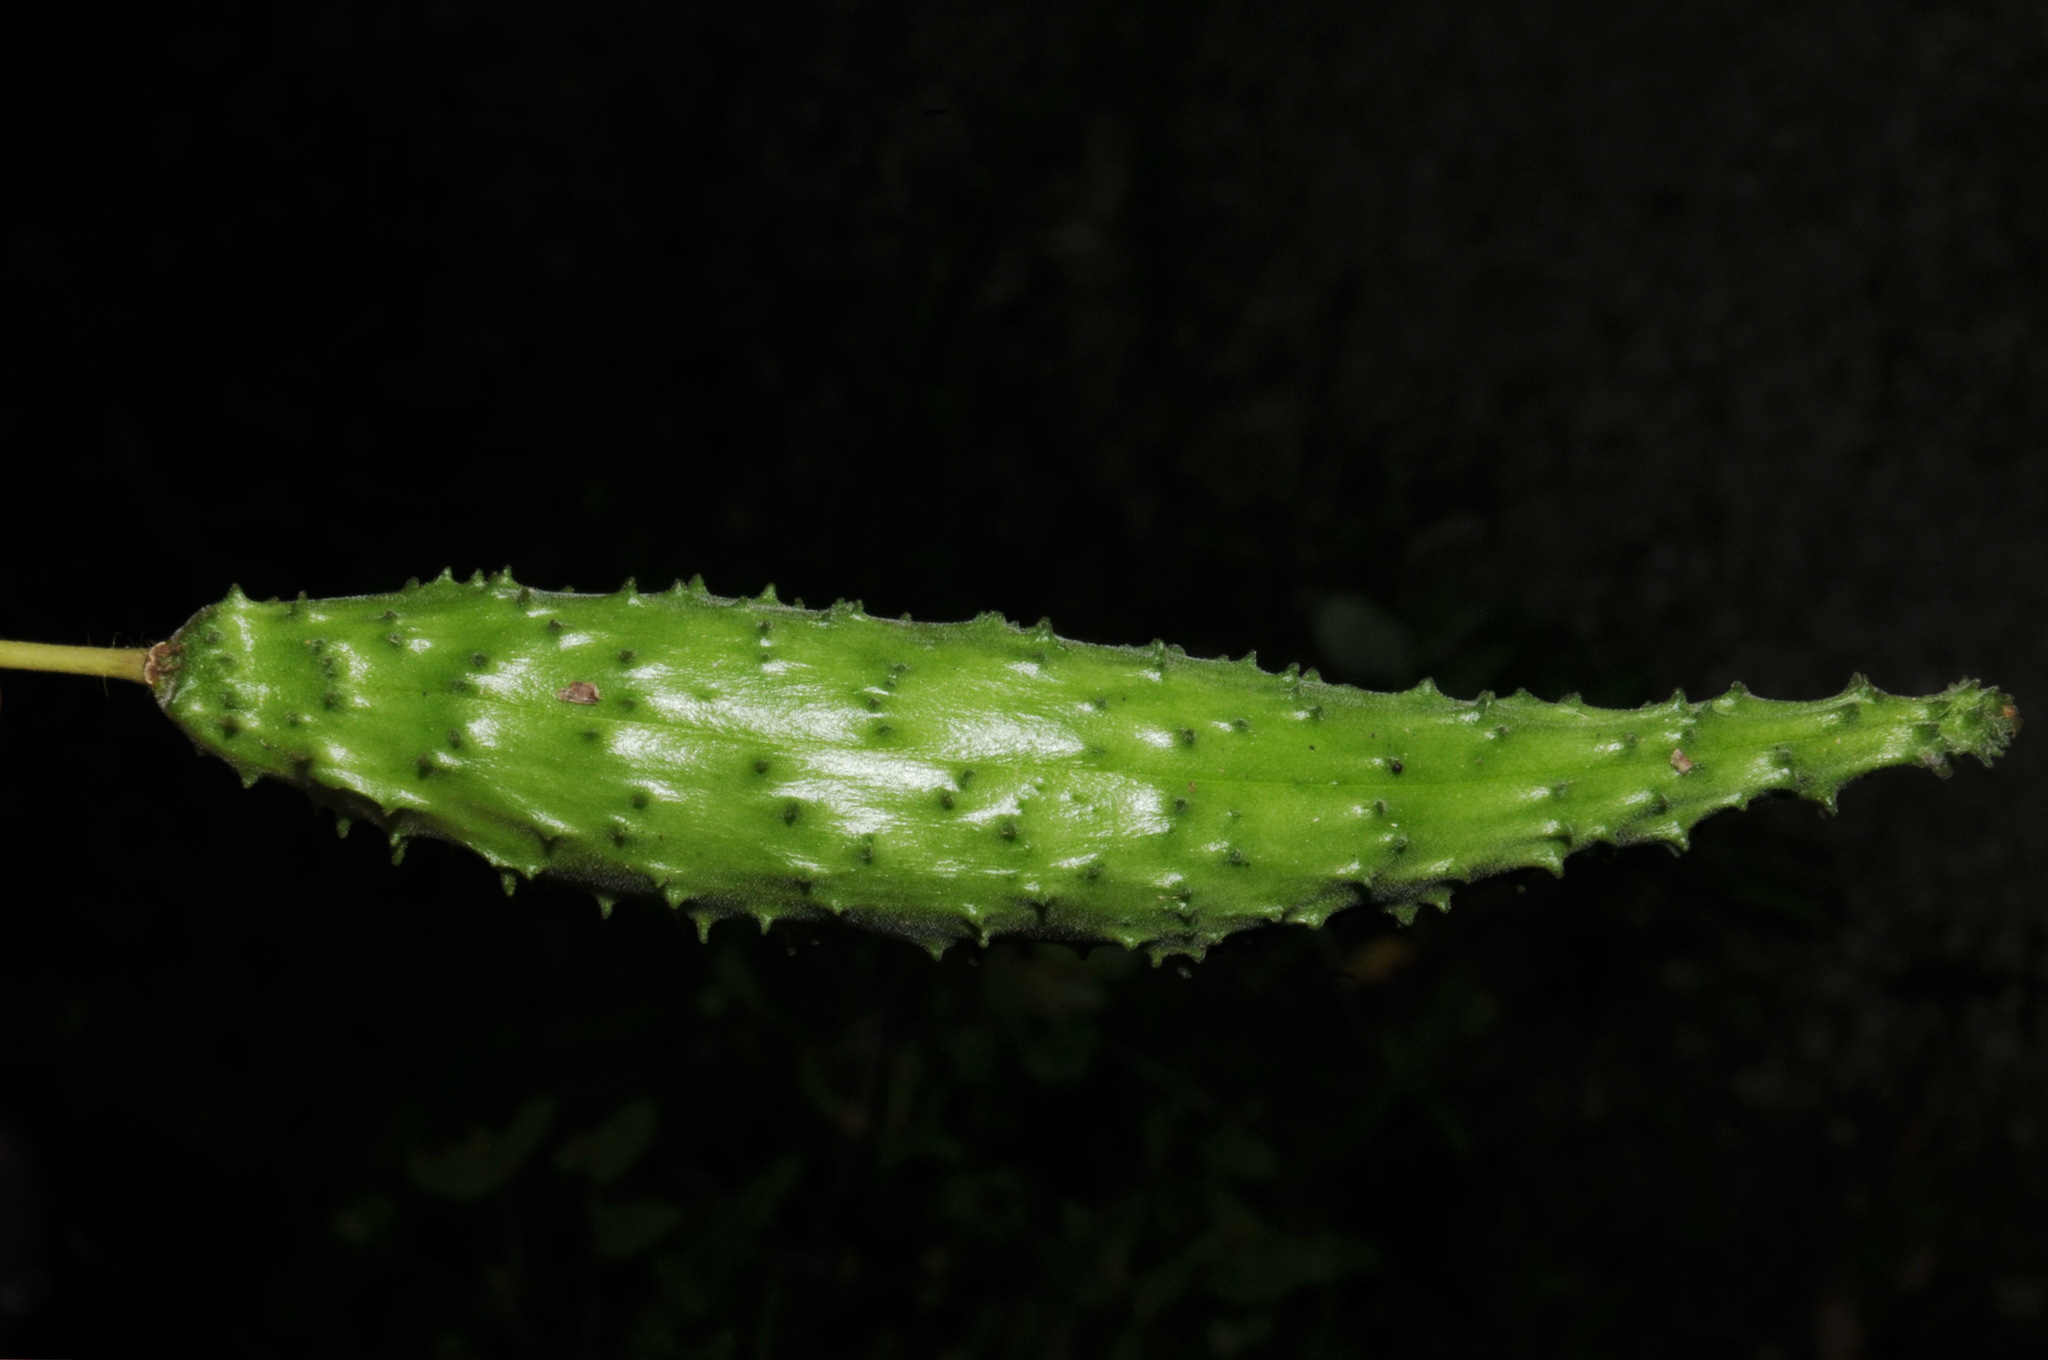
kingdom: Plantae
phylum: Tracheophyta
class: Magnoliopsida
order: Gentianales
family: Apocynaceae
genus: Matelea
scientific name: Matelea obliqua
